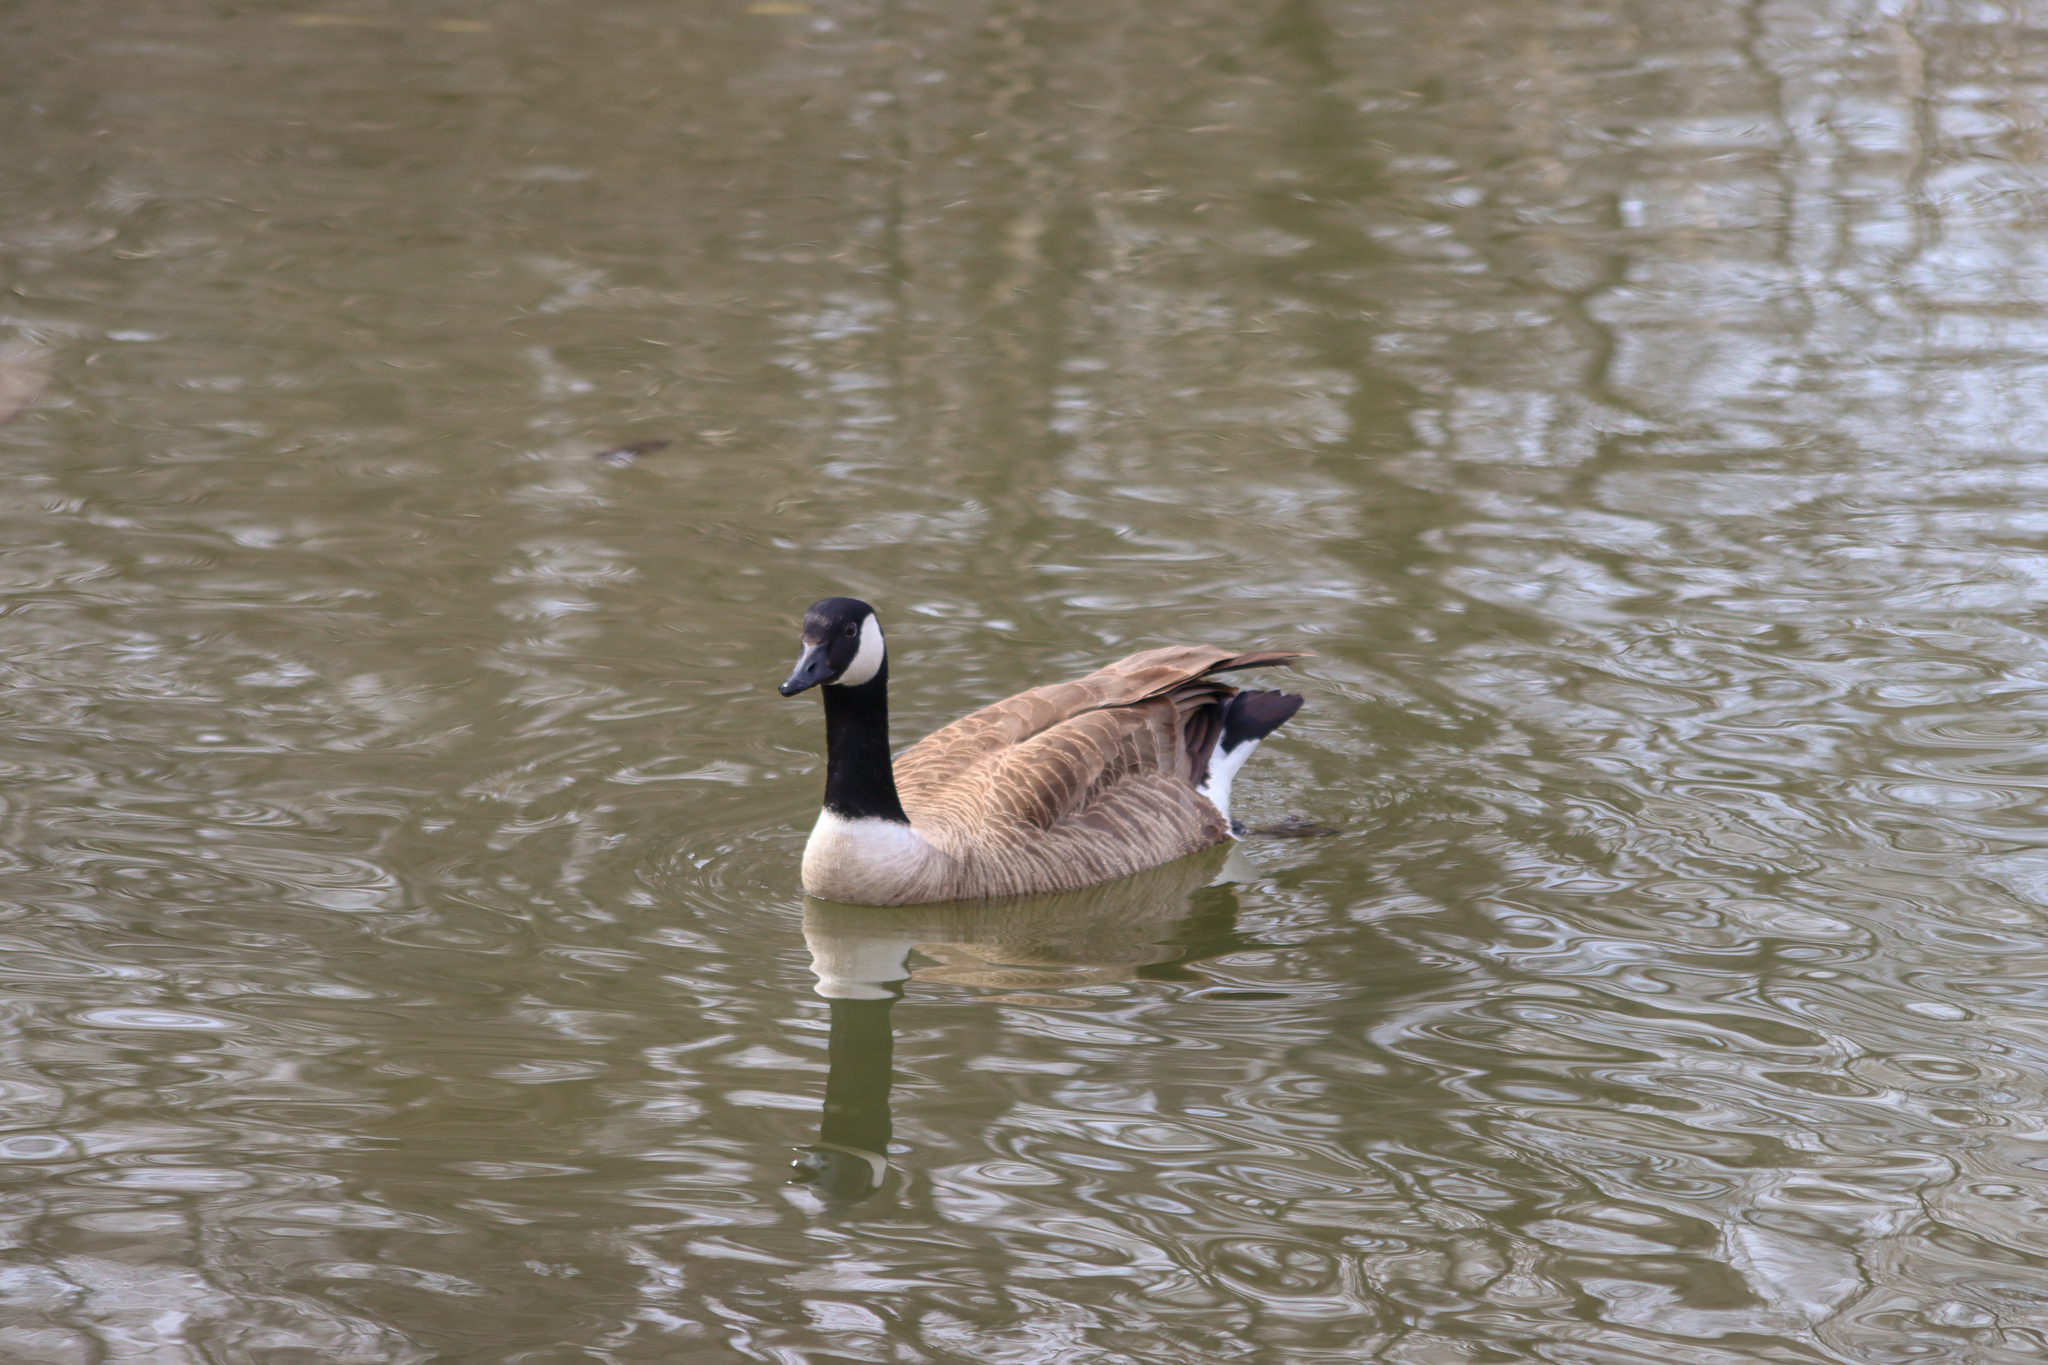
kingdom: Animalia
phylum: Chordata
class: Aves
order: Anseriformes
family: Anatidae
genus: Branta
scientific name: Branta canadensis
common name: Canada goose
